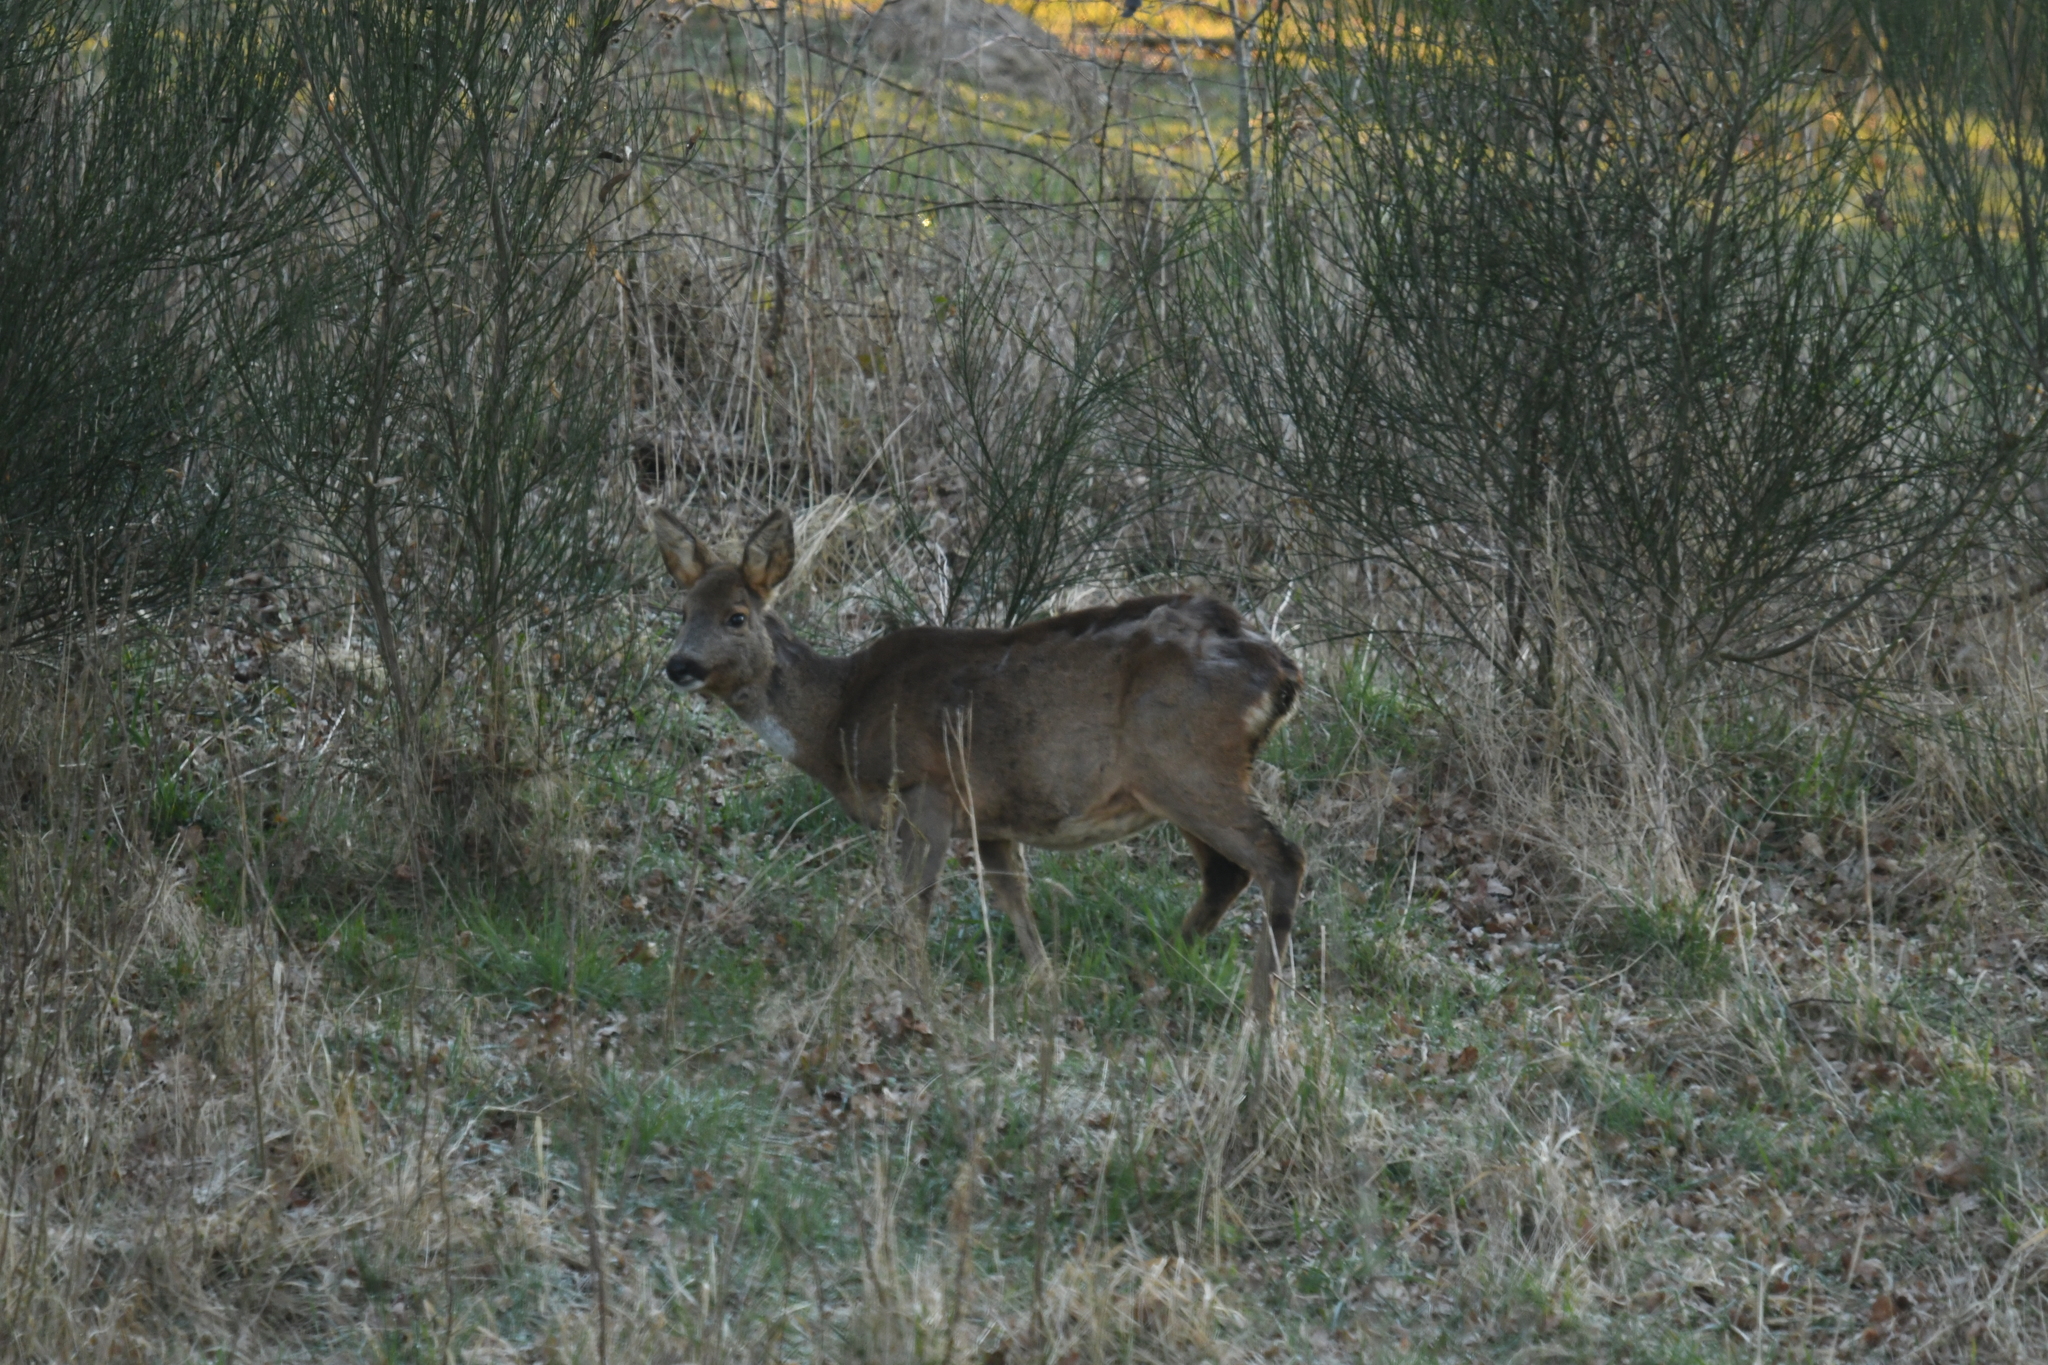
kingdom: Animalia
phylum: Chordata
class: Mammalia
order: Artiodactyla
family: Cervidae
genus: Capreolus
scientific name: Capreolus capreolus
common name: Western roe deer
